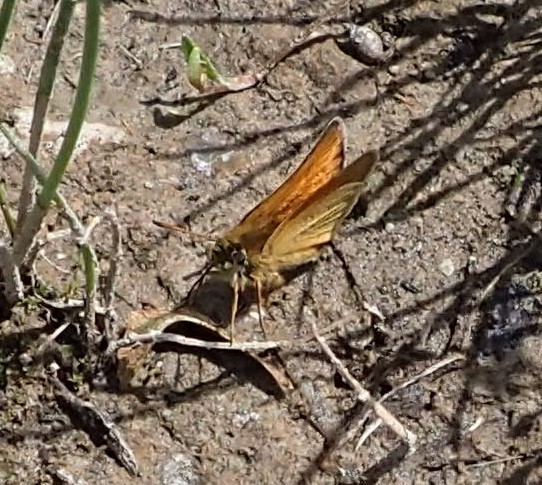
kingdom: Animalia
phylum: Arthropoda
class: Insecta
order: Lepidoptera
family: Hesperiidae
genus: Thymelicus
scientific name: Thymelicus lineola
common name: Essex skipper
